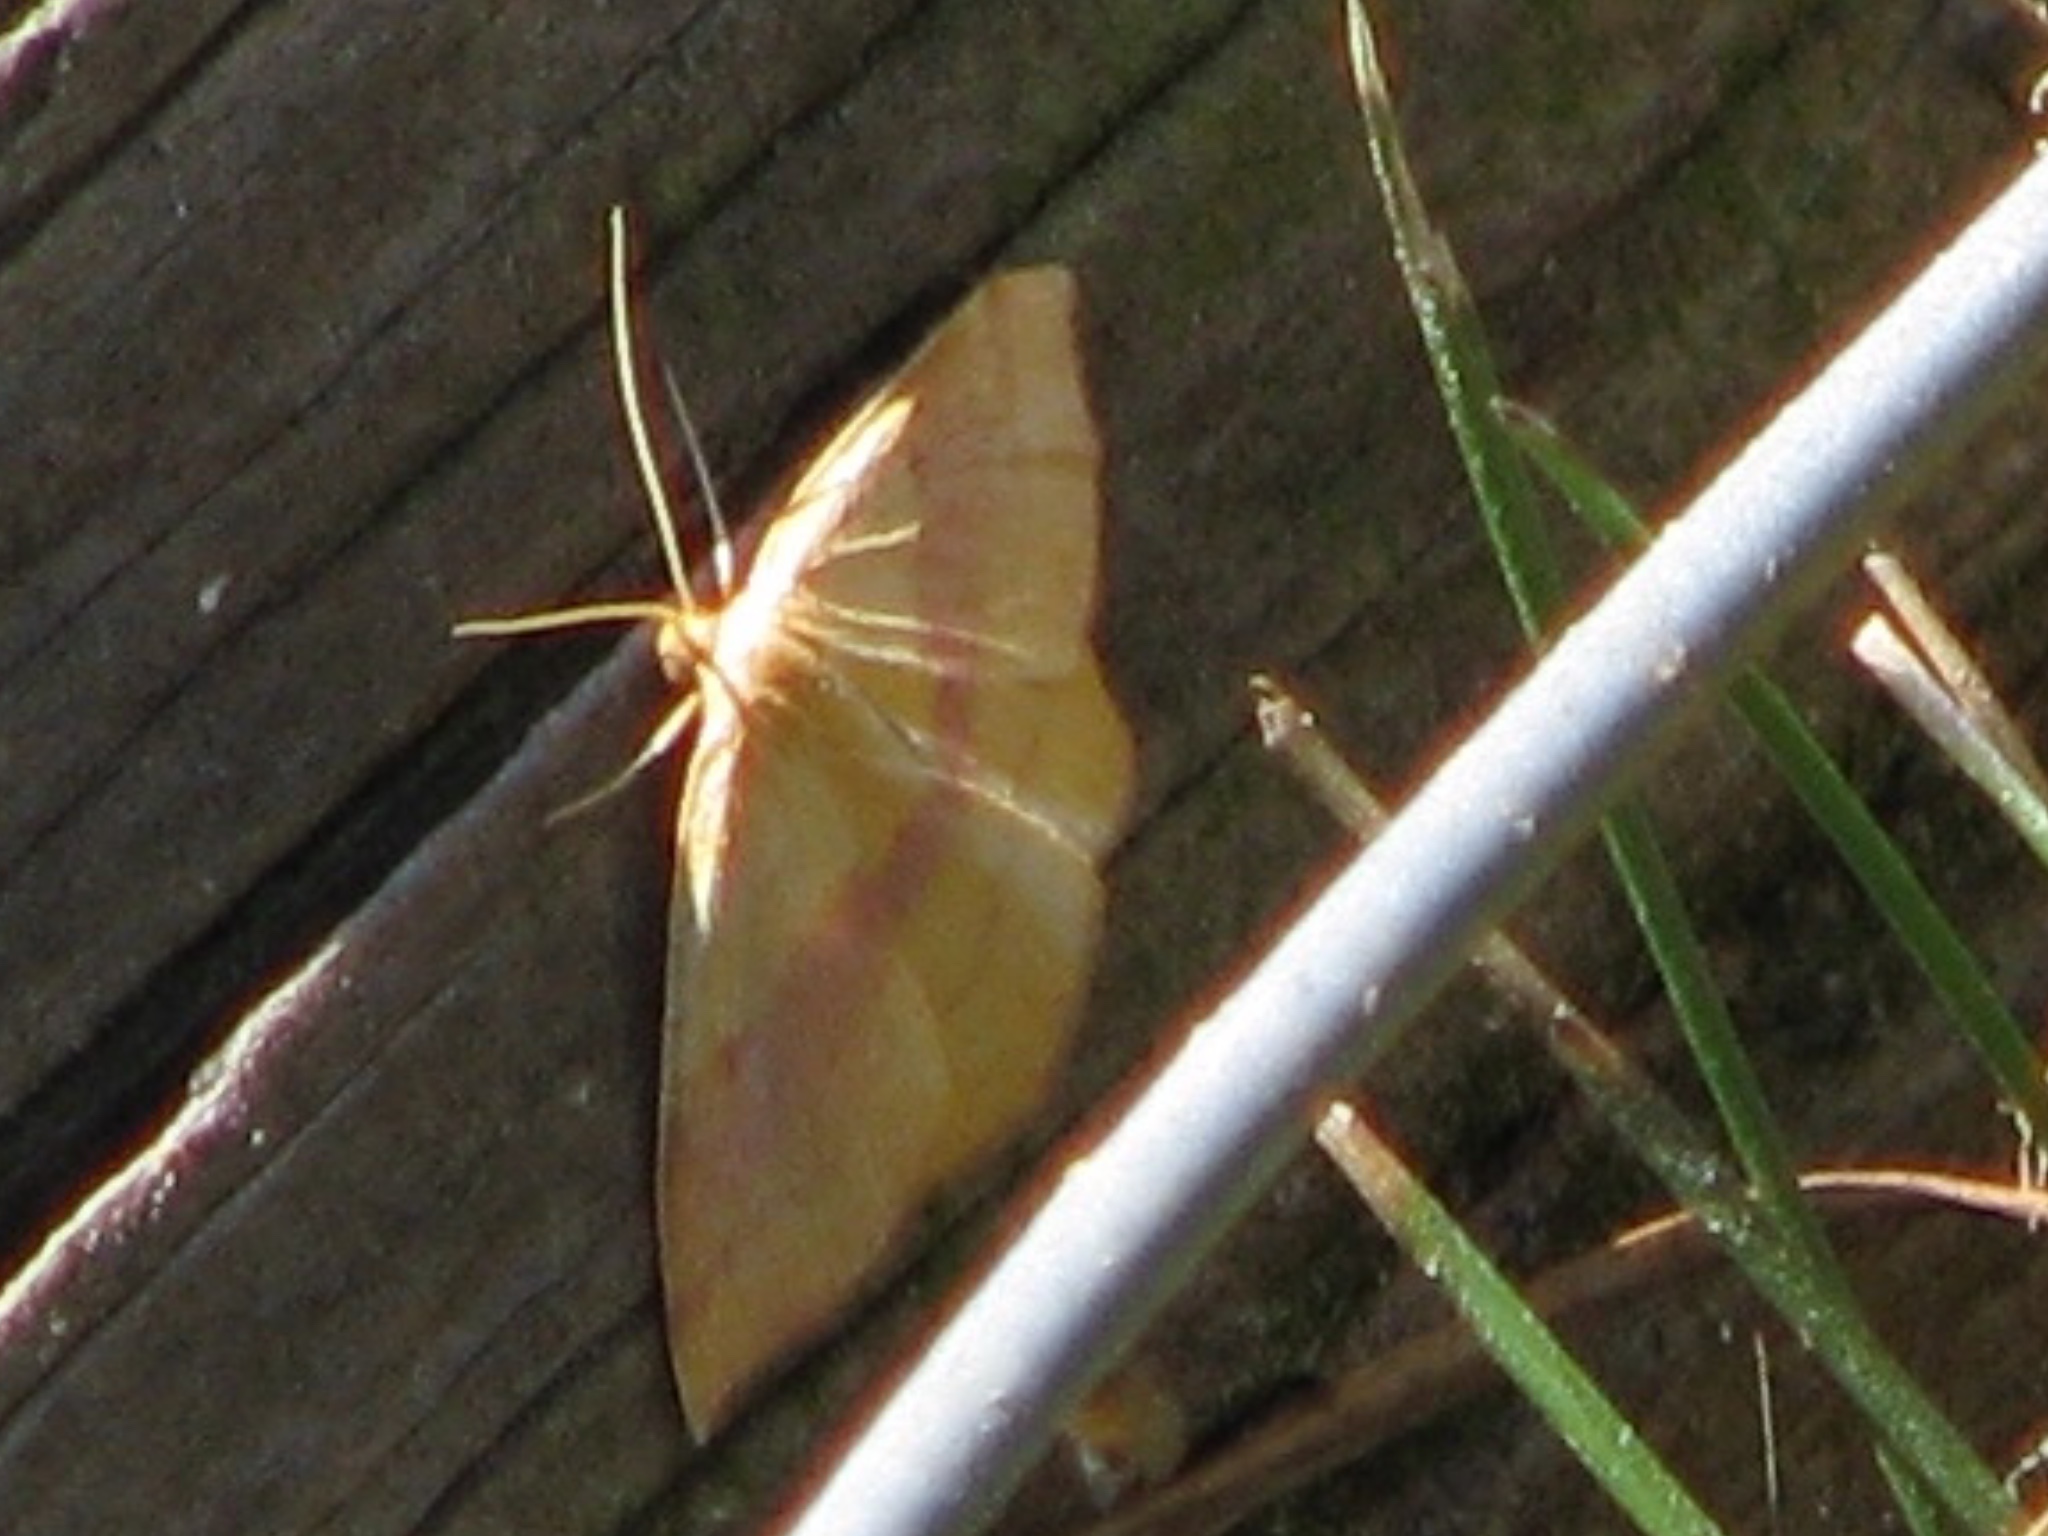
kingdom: Animalia
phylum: Arthropoda
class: Insecta
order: Lepidoptera
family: Geometridae
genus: Haematopis
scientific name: Haematopis grataria
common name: Chickweed geometer
